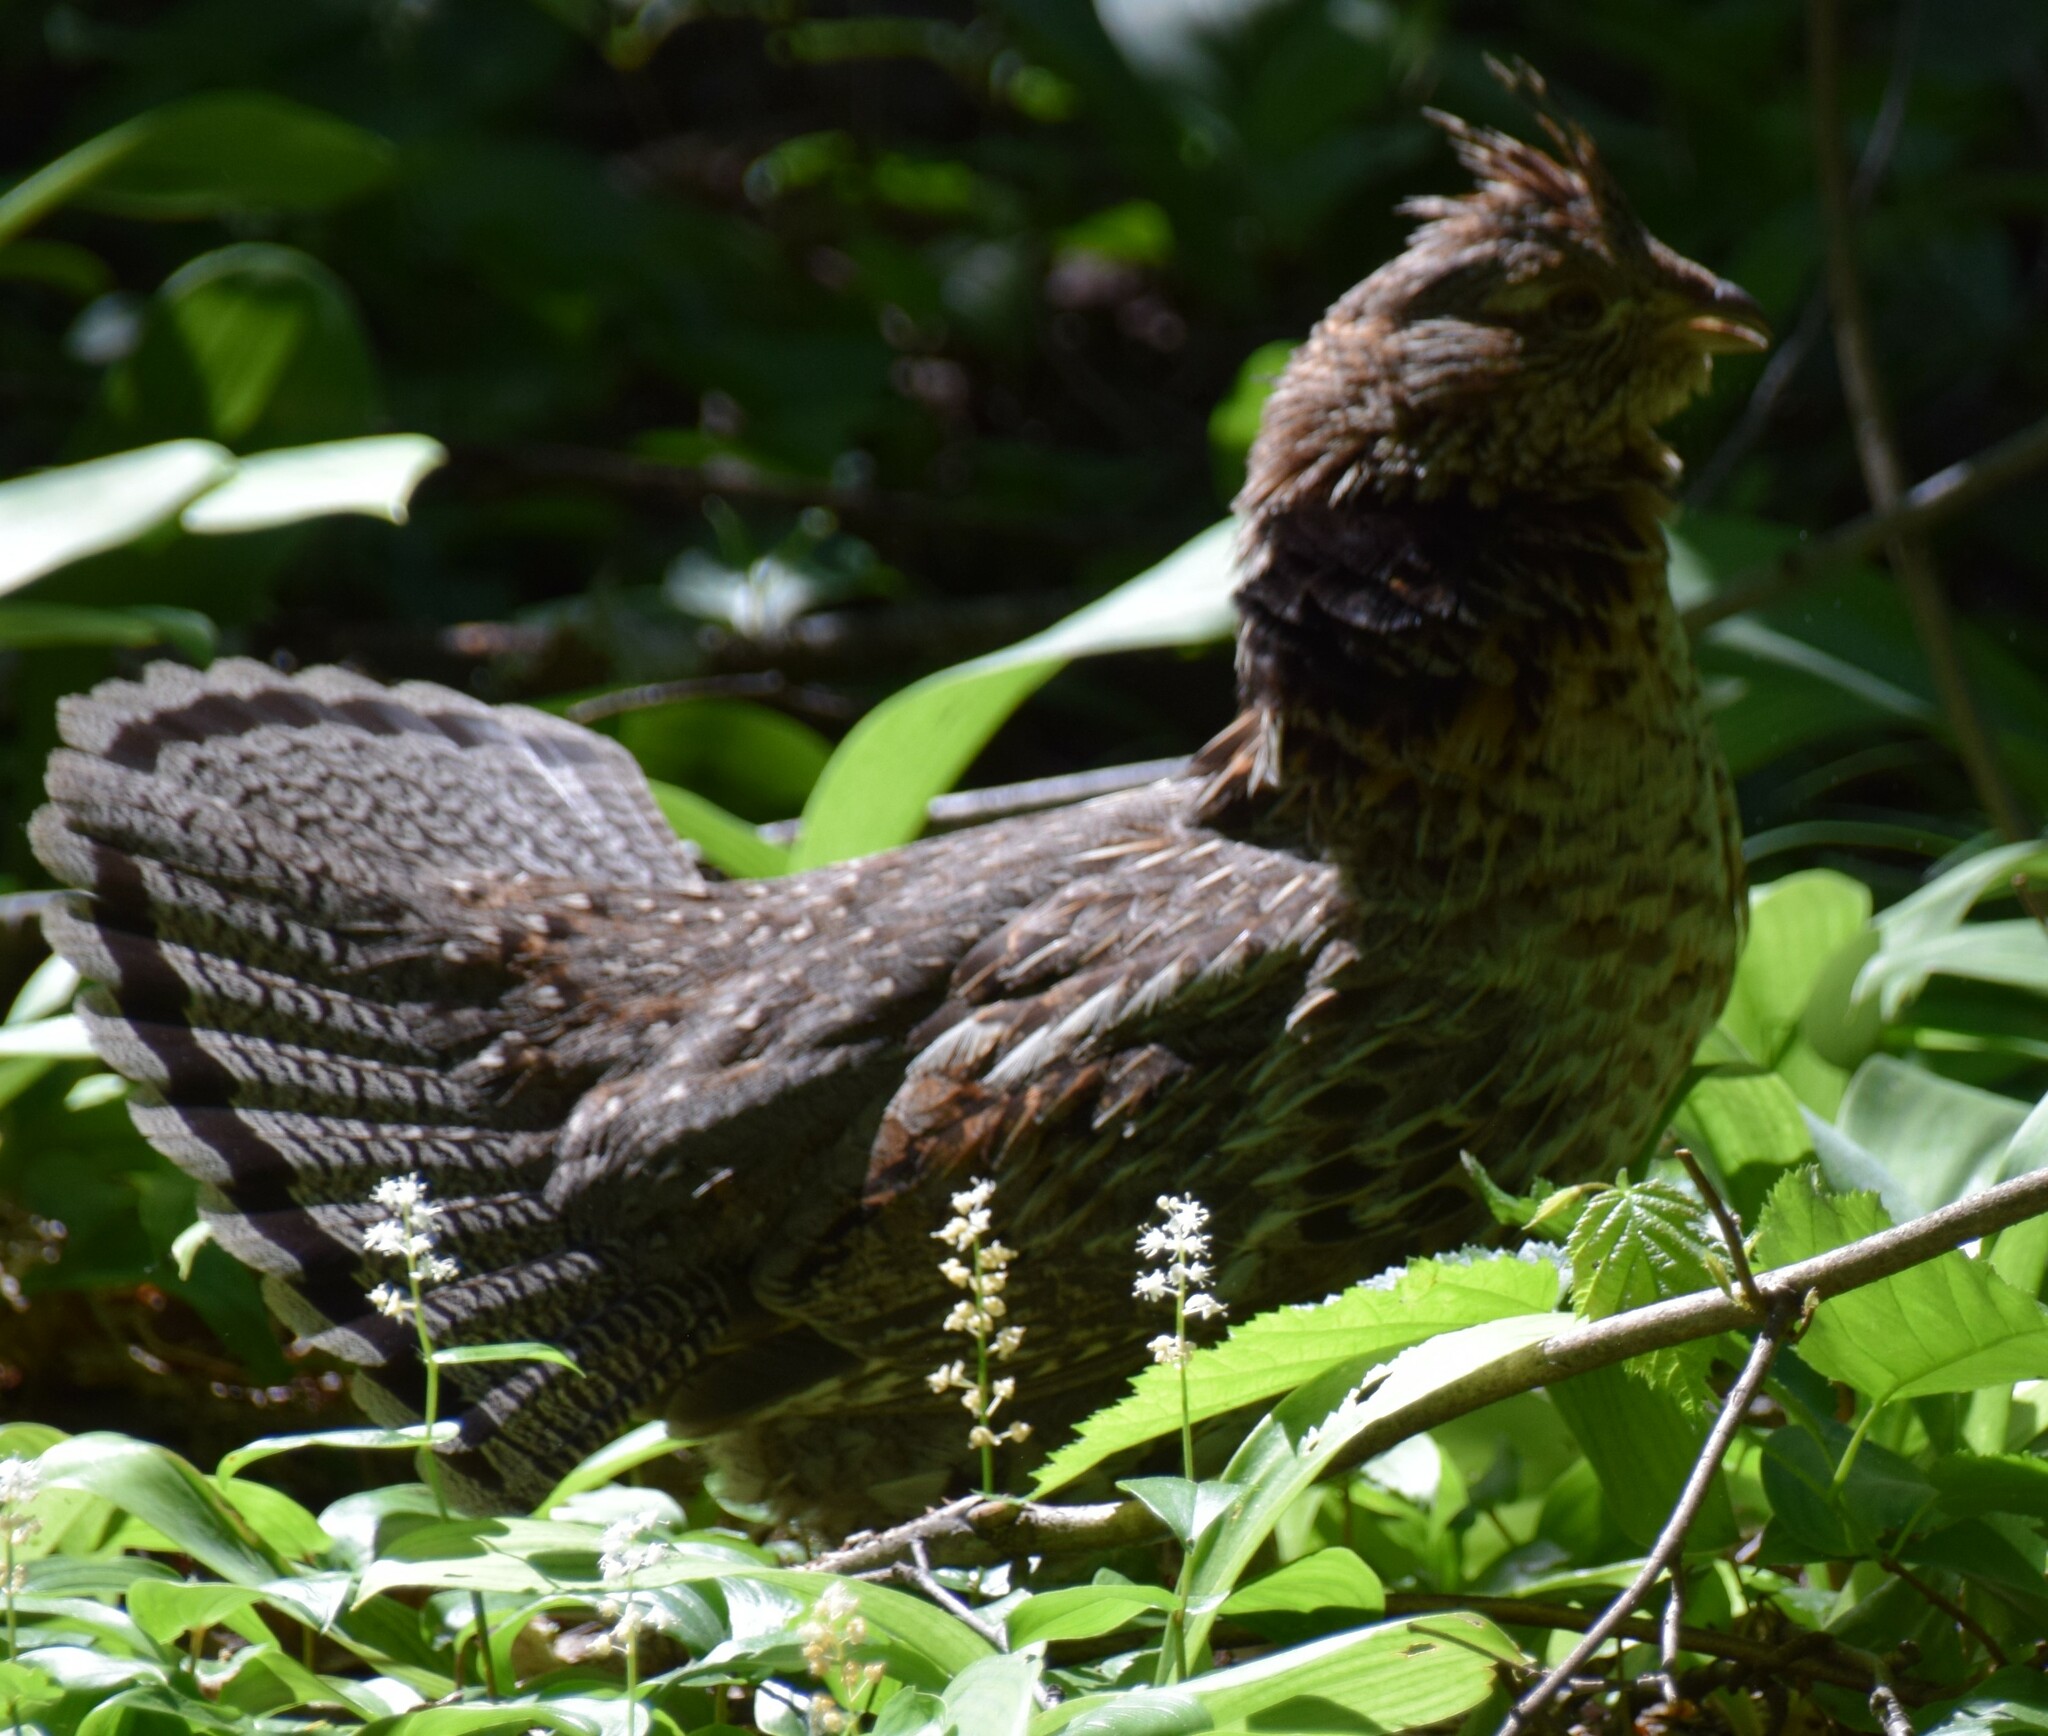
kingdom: Animalia
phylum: Chordata
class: Aves
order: Galliformes
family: Phasianidae
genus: Bonasa
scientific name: Bonasa umbellus
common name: Ruffed grouse
